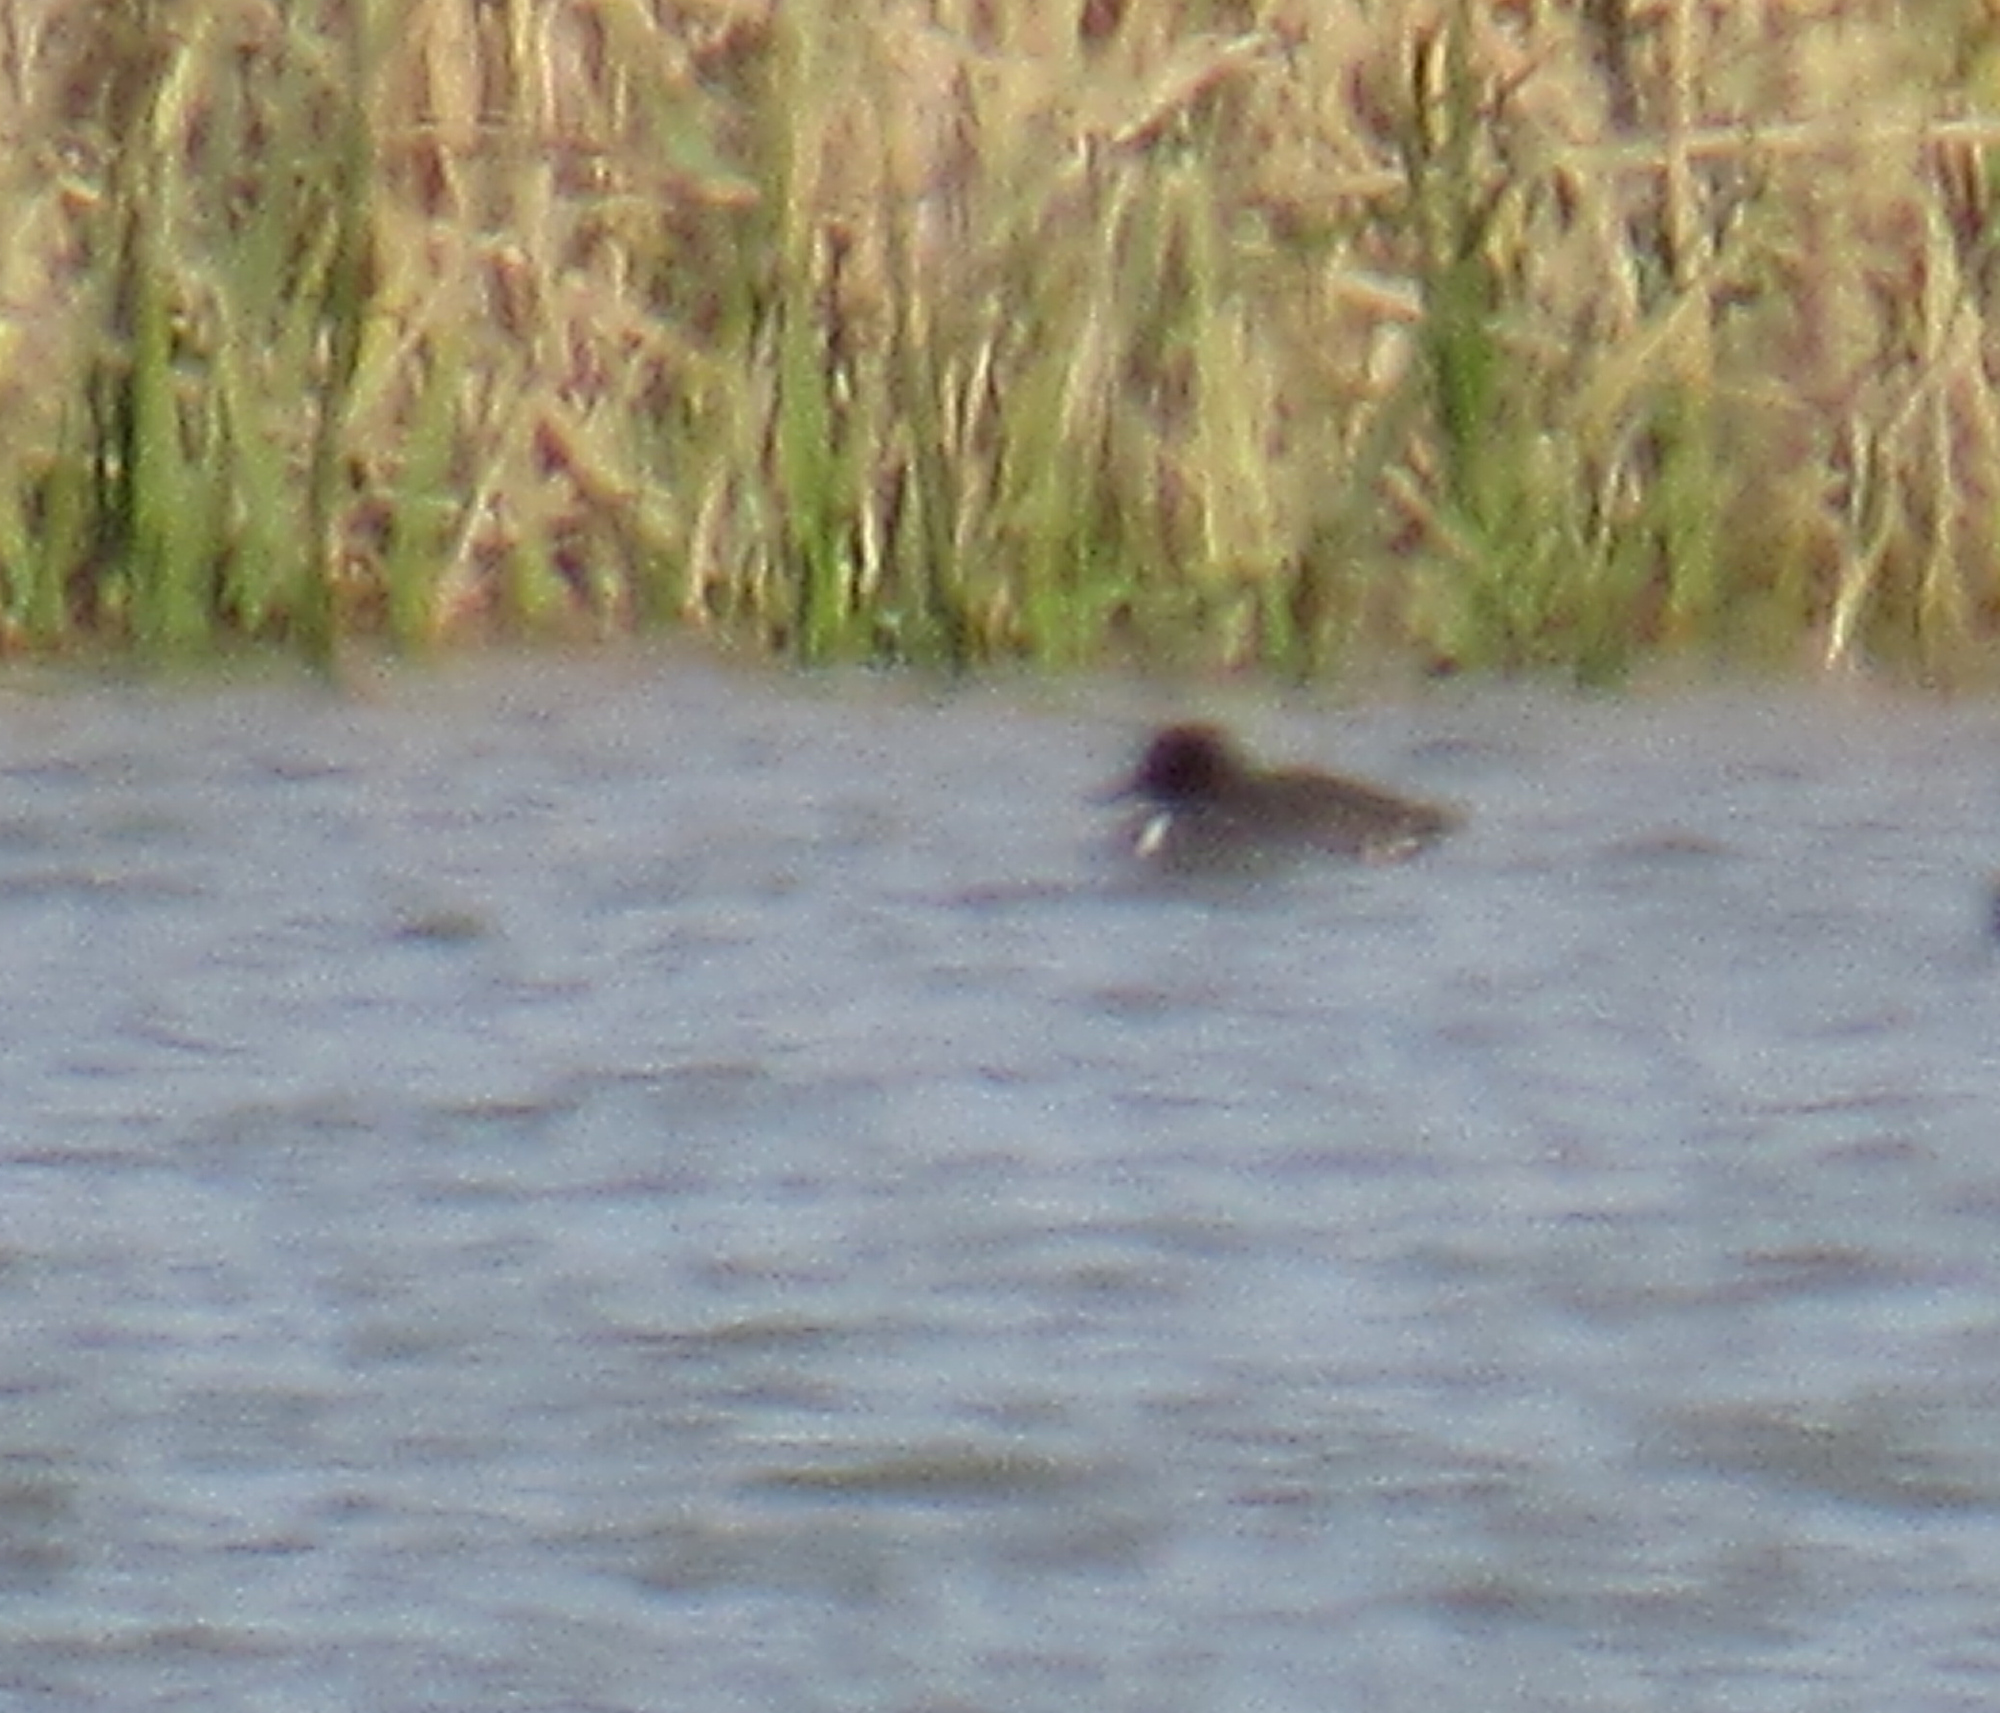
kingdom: Animalia
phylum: Chordata
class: Aves
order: Anseriformes
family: Anatidae
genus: Anas
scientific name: Anas crecca
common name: Eurasian teal
